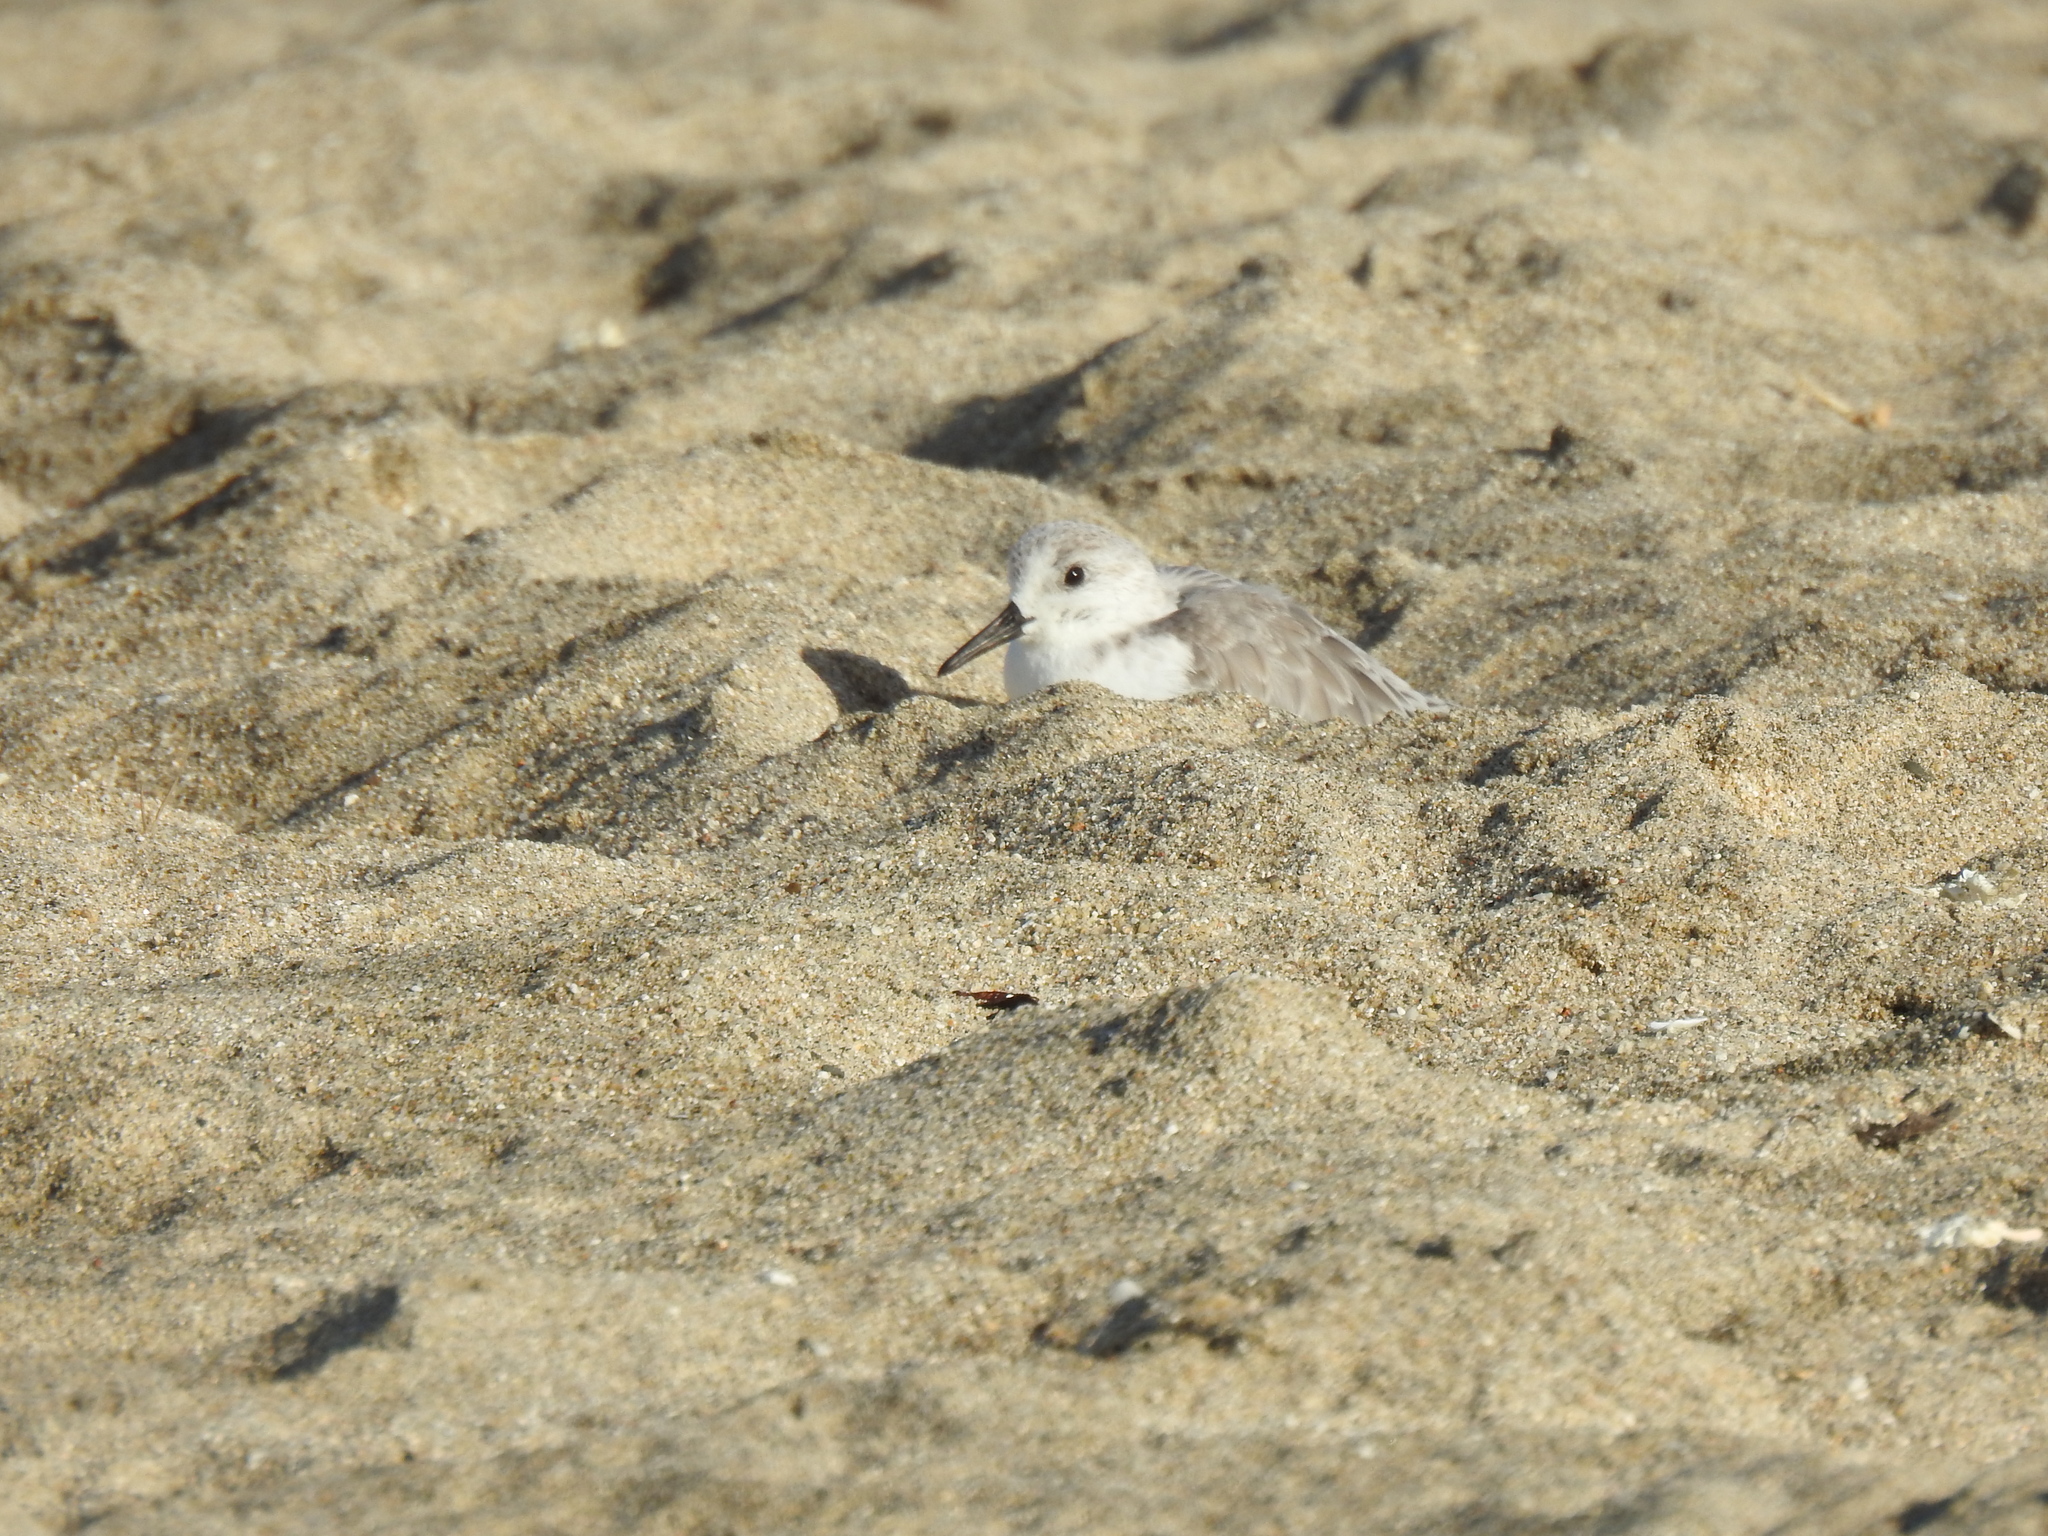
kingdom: Animalia
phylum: Chordata
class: Aves
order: Charadriiformes
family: Scolopacidae
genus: Calidris
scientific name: Calidris alba
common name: Sanderling
